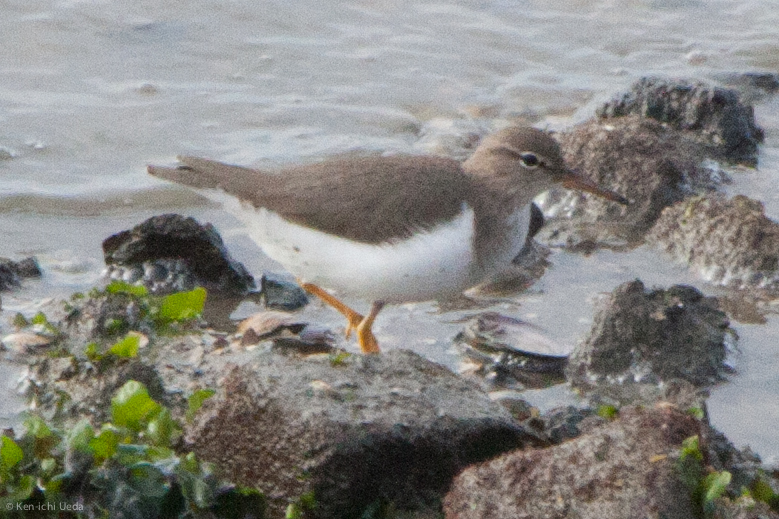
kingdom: Animalia
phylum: Chordata
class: Aves
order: Charadriiformes
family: Scolopacidae
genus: Actitis
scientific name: Actitis macularius
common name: Spotted sandpiper
